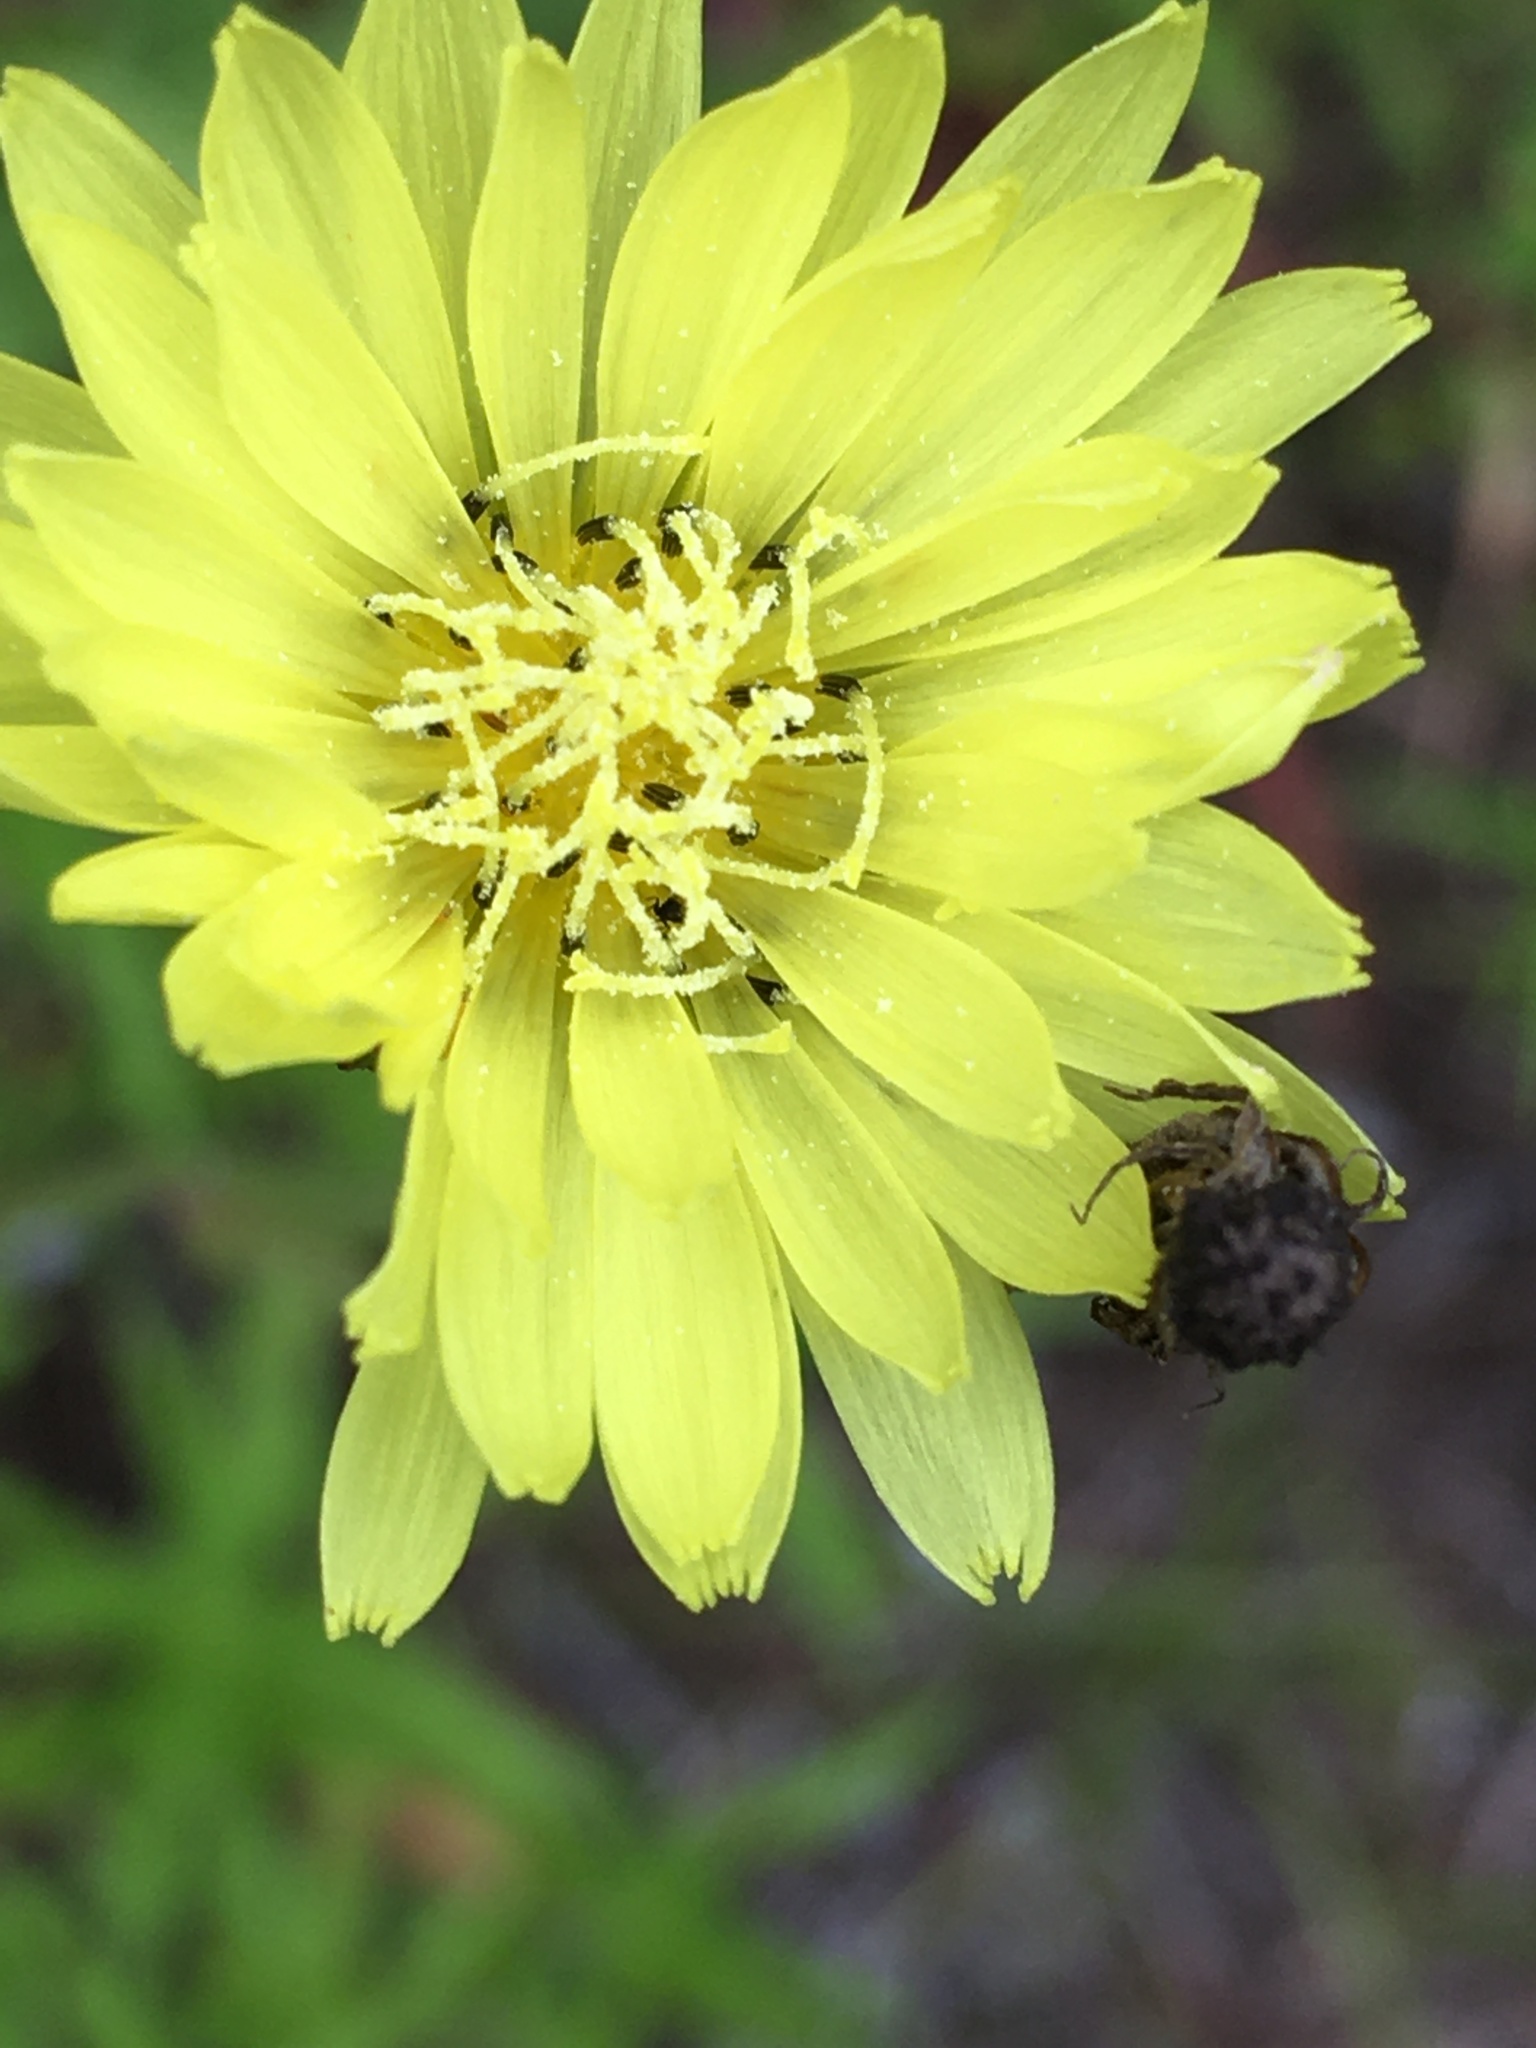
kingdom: Plantae
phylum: Tracheophyta
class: Magnoliopsida
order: Asterales
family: Asteraceae
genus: Pyrrhopappus
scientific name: Pyrrhopappus carolinianus
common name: Carolina desert-chicory
